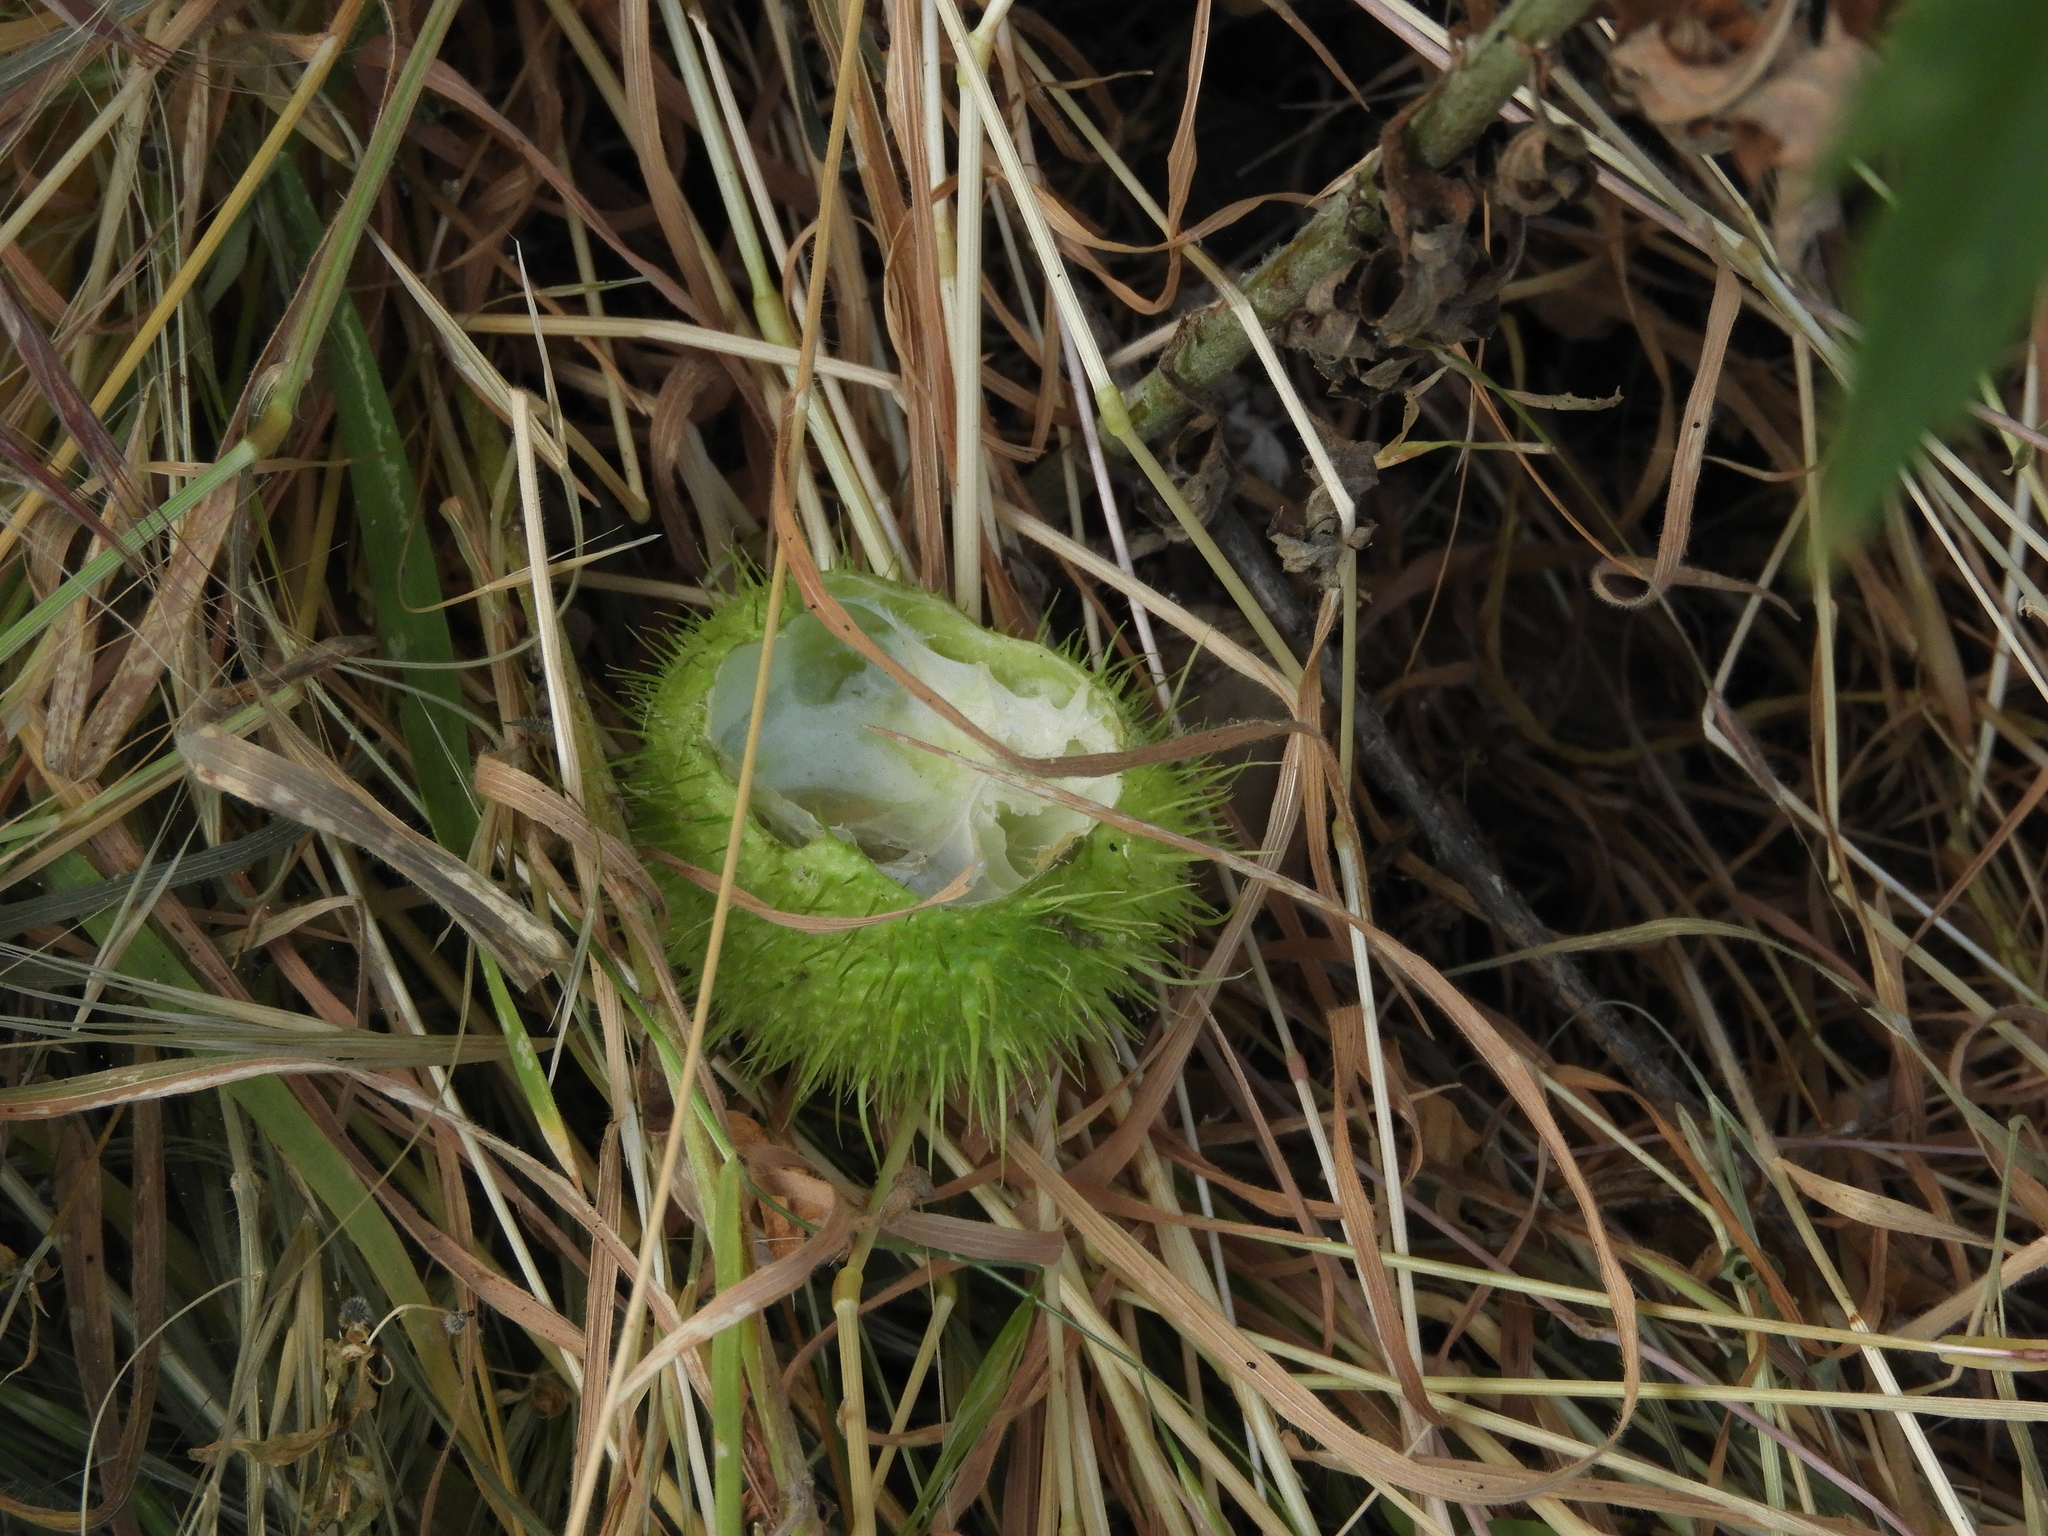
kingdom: Plantae
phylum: Tracheophyta
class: Magnoliopsida
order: Cucurbitales
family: Cucurbitaceae
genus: Marah
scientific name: Marah fabacea
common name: California manroot
